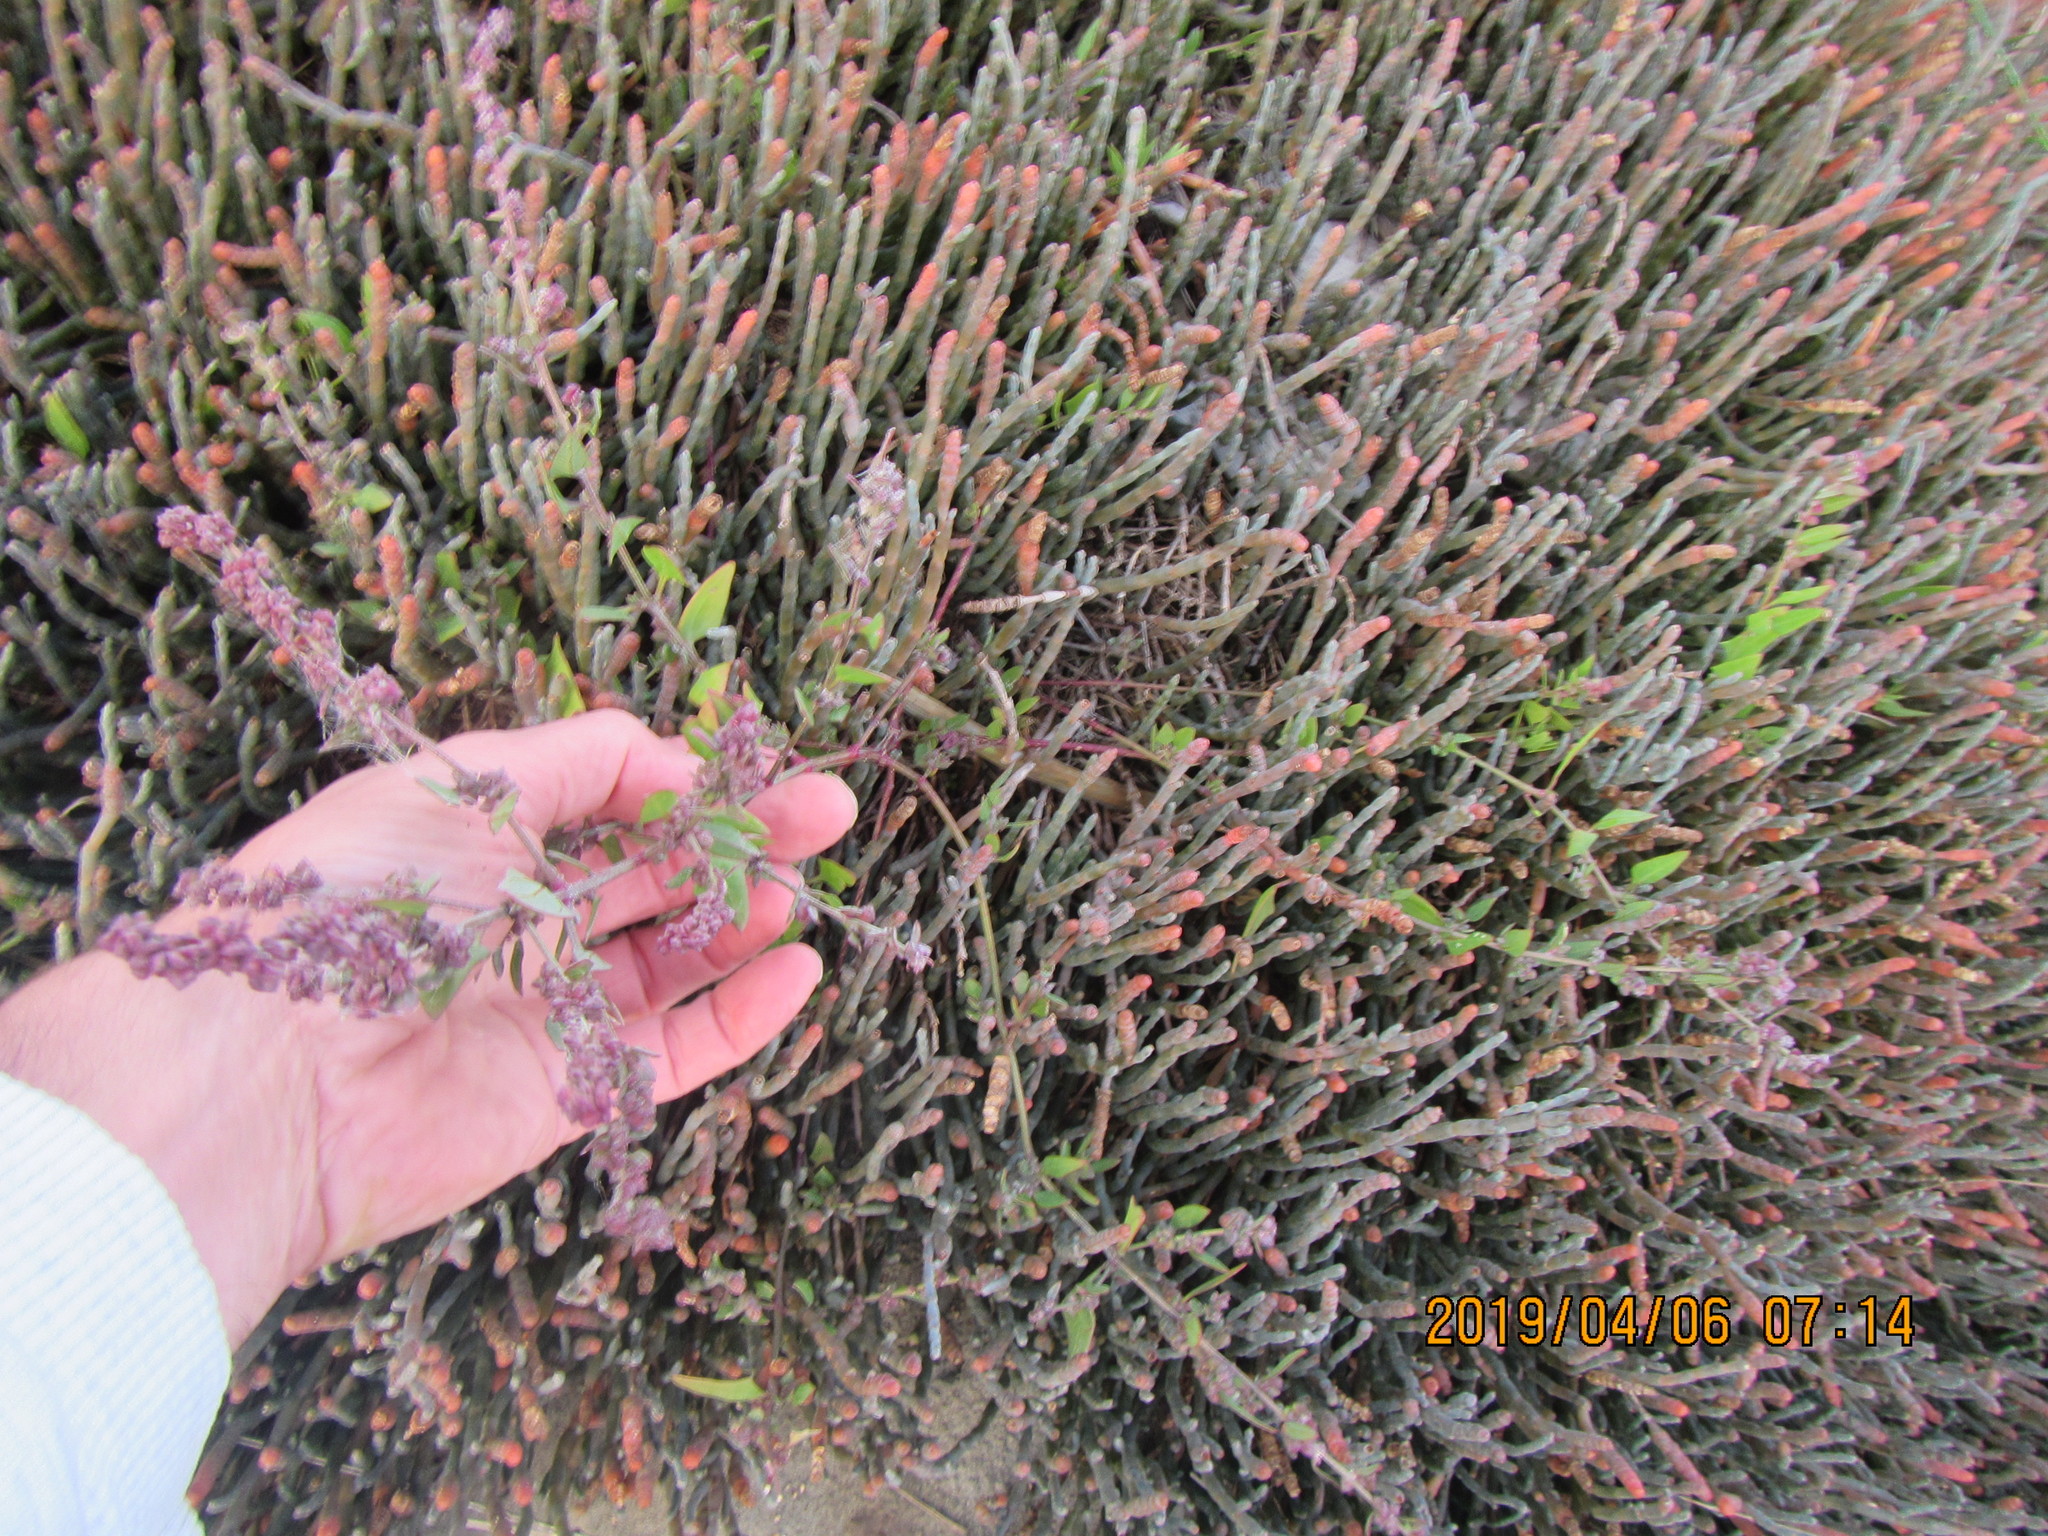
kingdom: Plantae
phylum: Tracheophyta
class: Magnoliopsida
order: Caryophyllales
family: Amaranthaceae
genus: Atriplex
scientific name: Atriplex prostrata
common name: Spear-leaved orache
